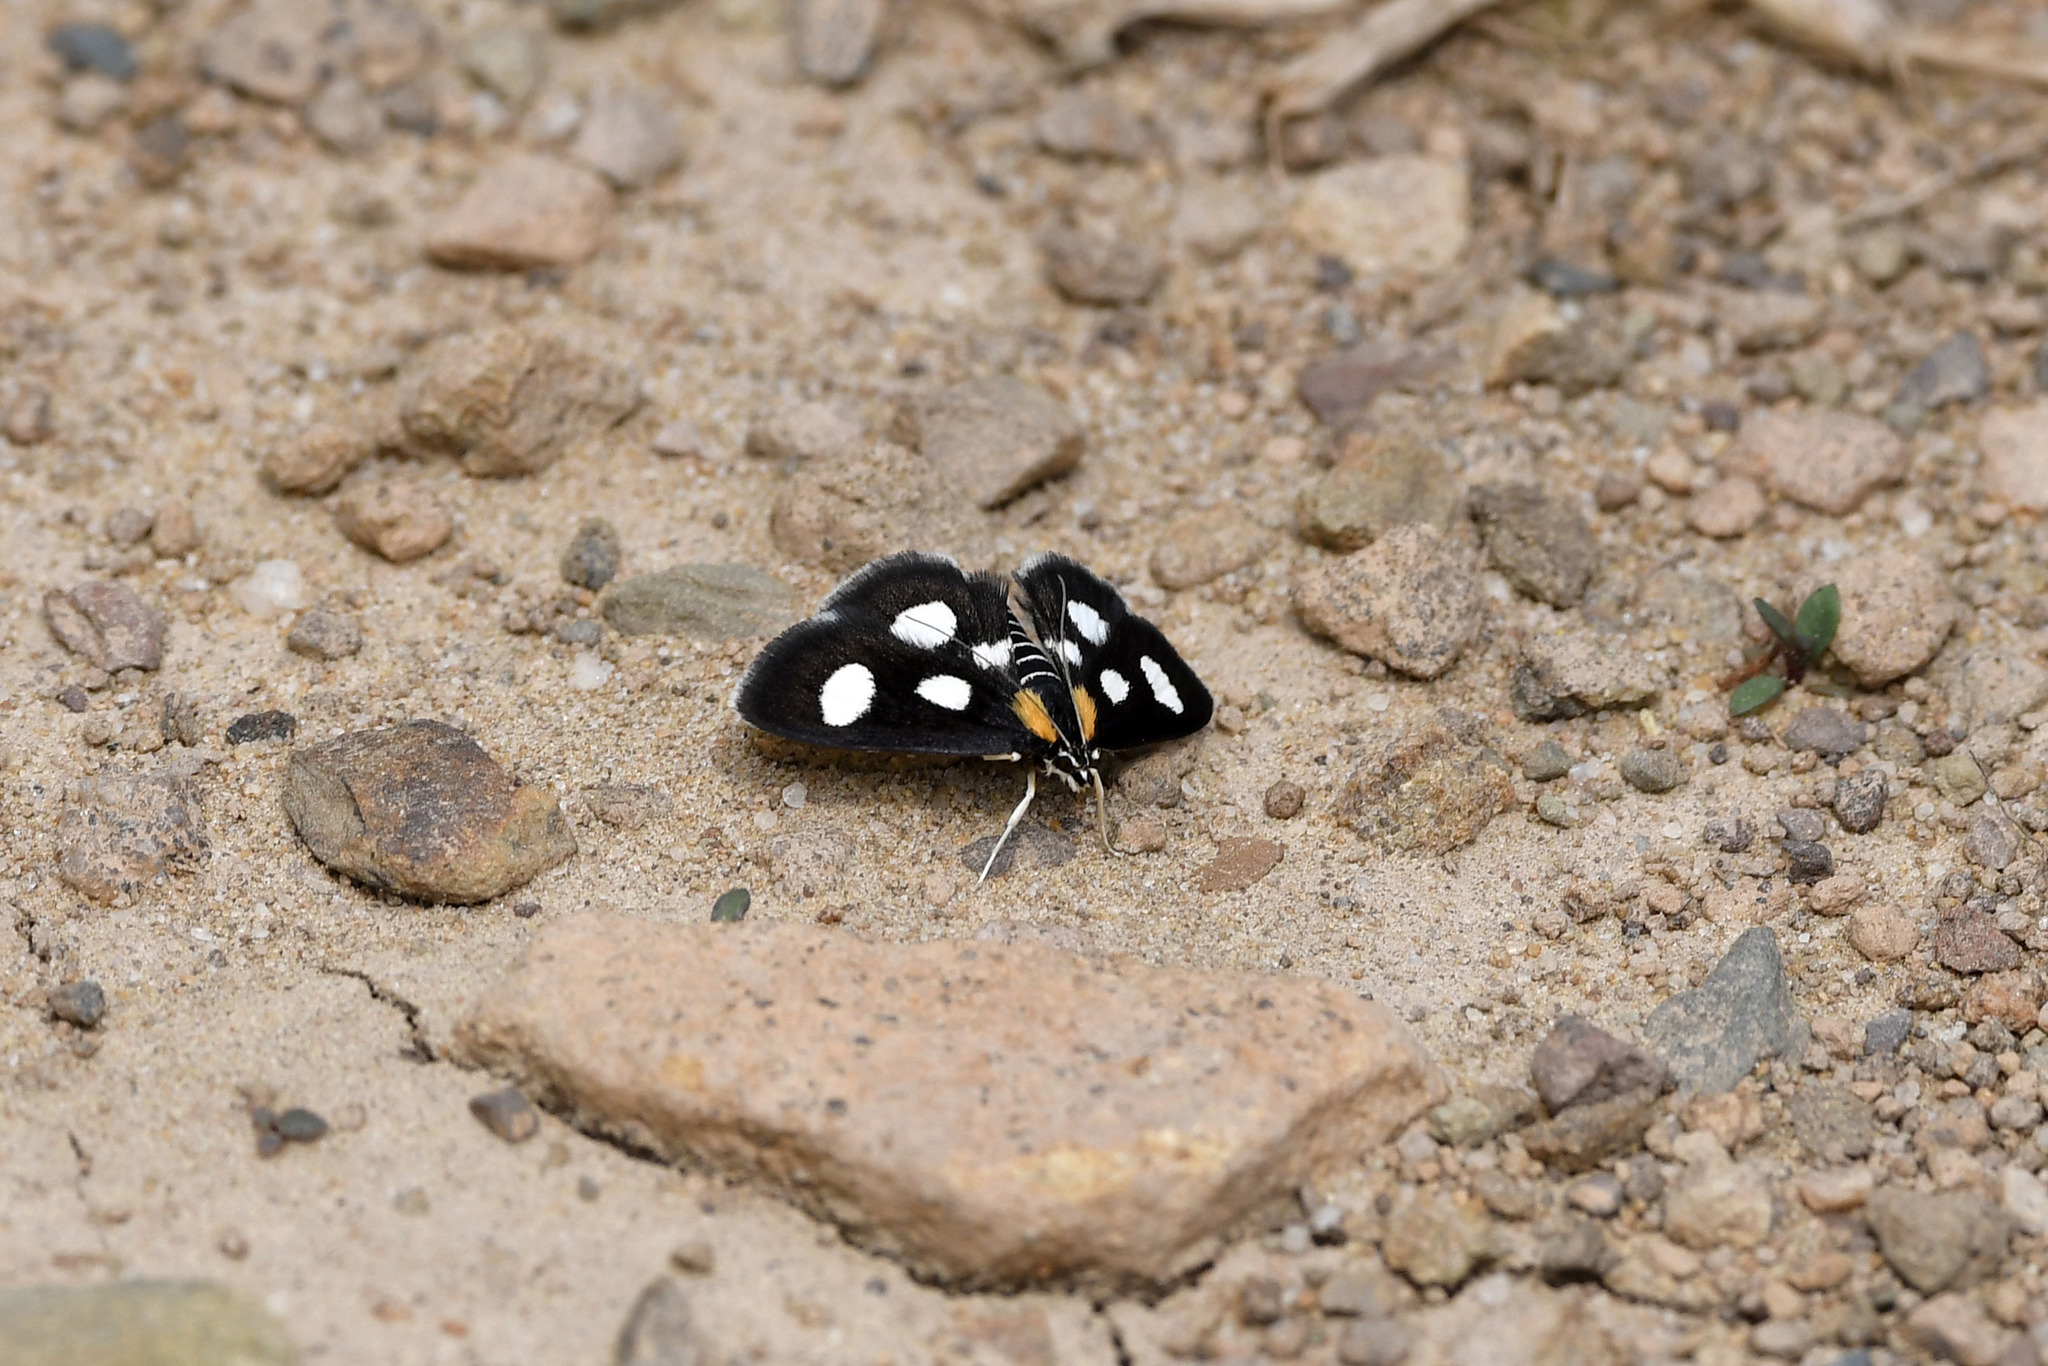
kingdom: Animalia
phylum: Arthropoda
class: Insecta
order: Lepidoptera
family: Crambidae
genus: Anania
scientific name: Anania funebris
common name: White-spotted sable moth
